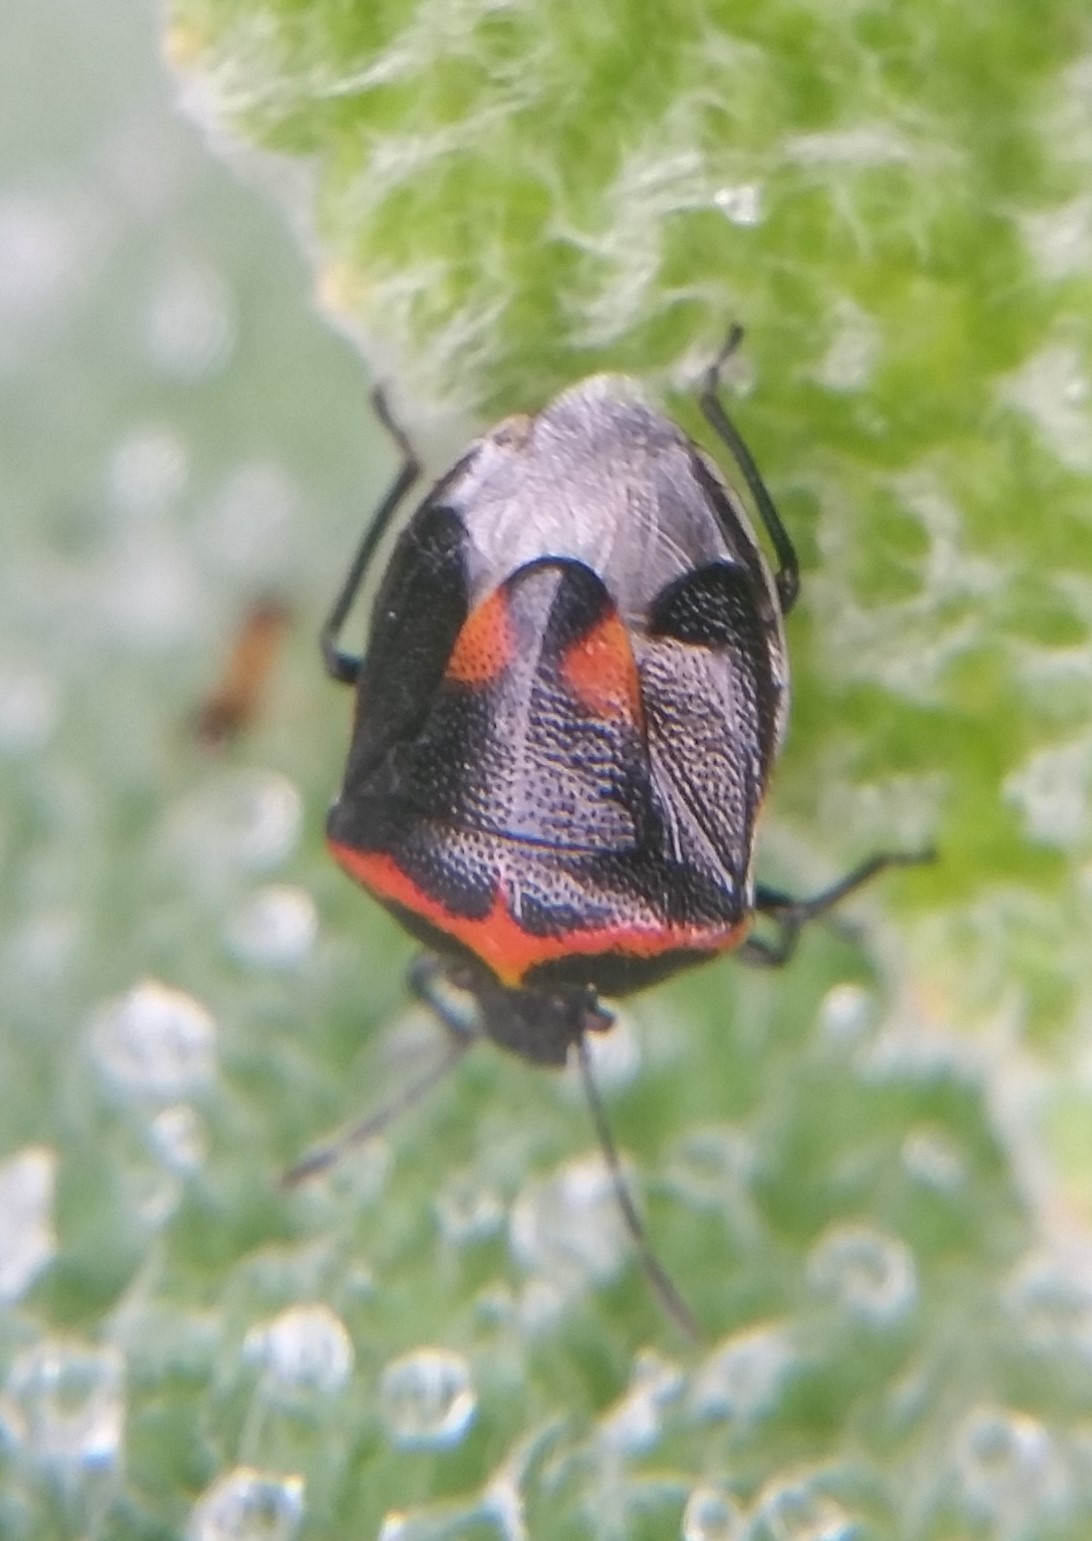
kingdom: Animalia
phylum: Arthropoda
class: Insecta
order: Hemiptera
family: Pentatomidae
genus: Cosmopepla
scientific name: Cosmopepla lintneriana
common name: Twice-stabbed stink bug
